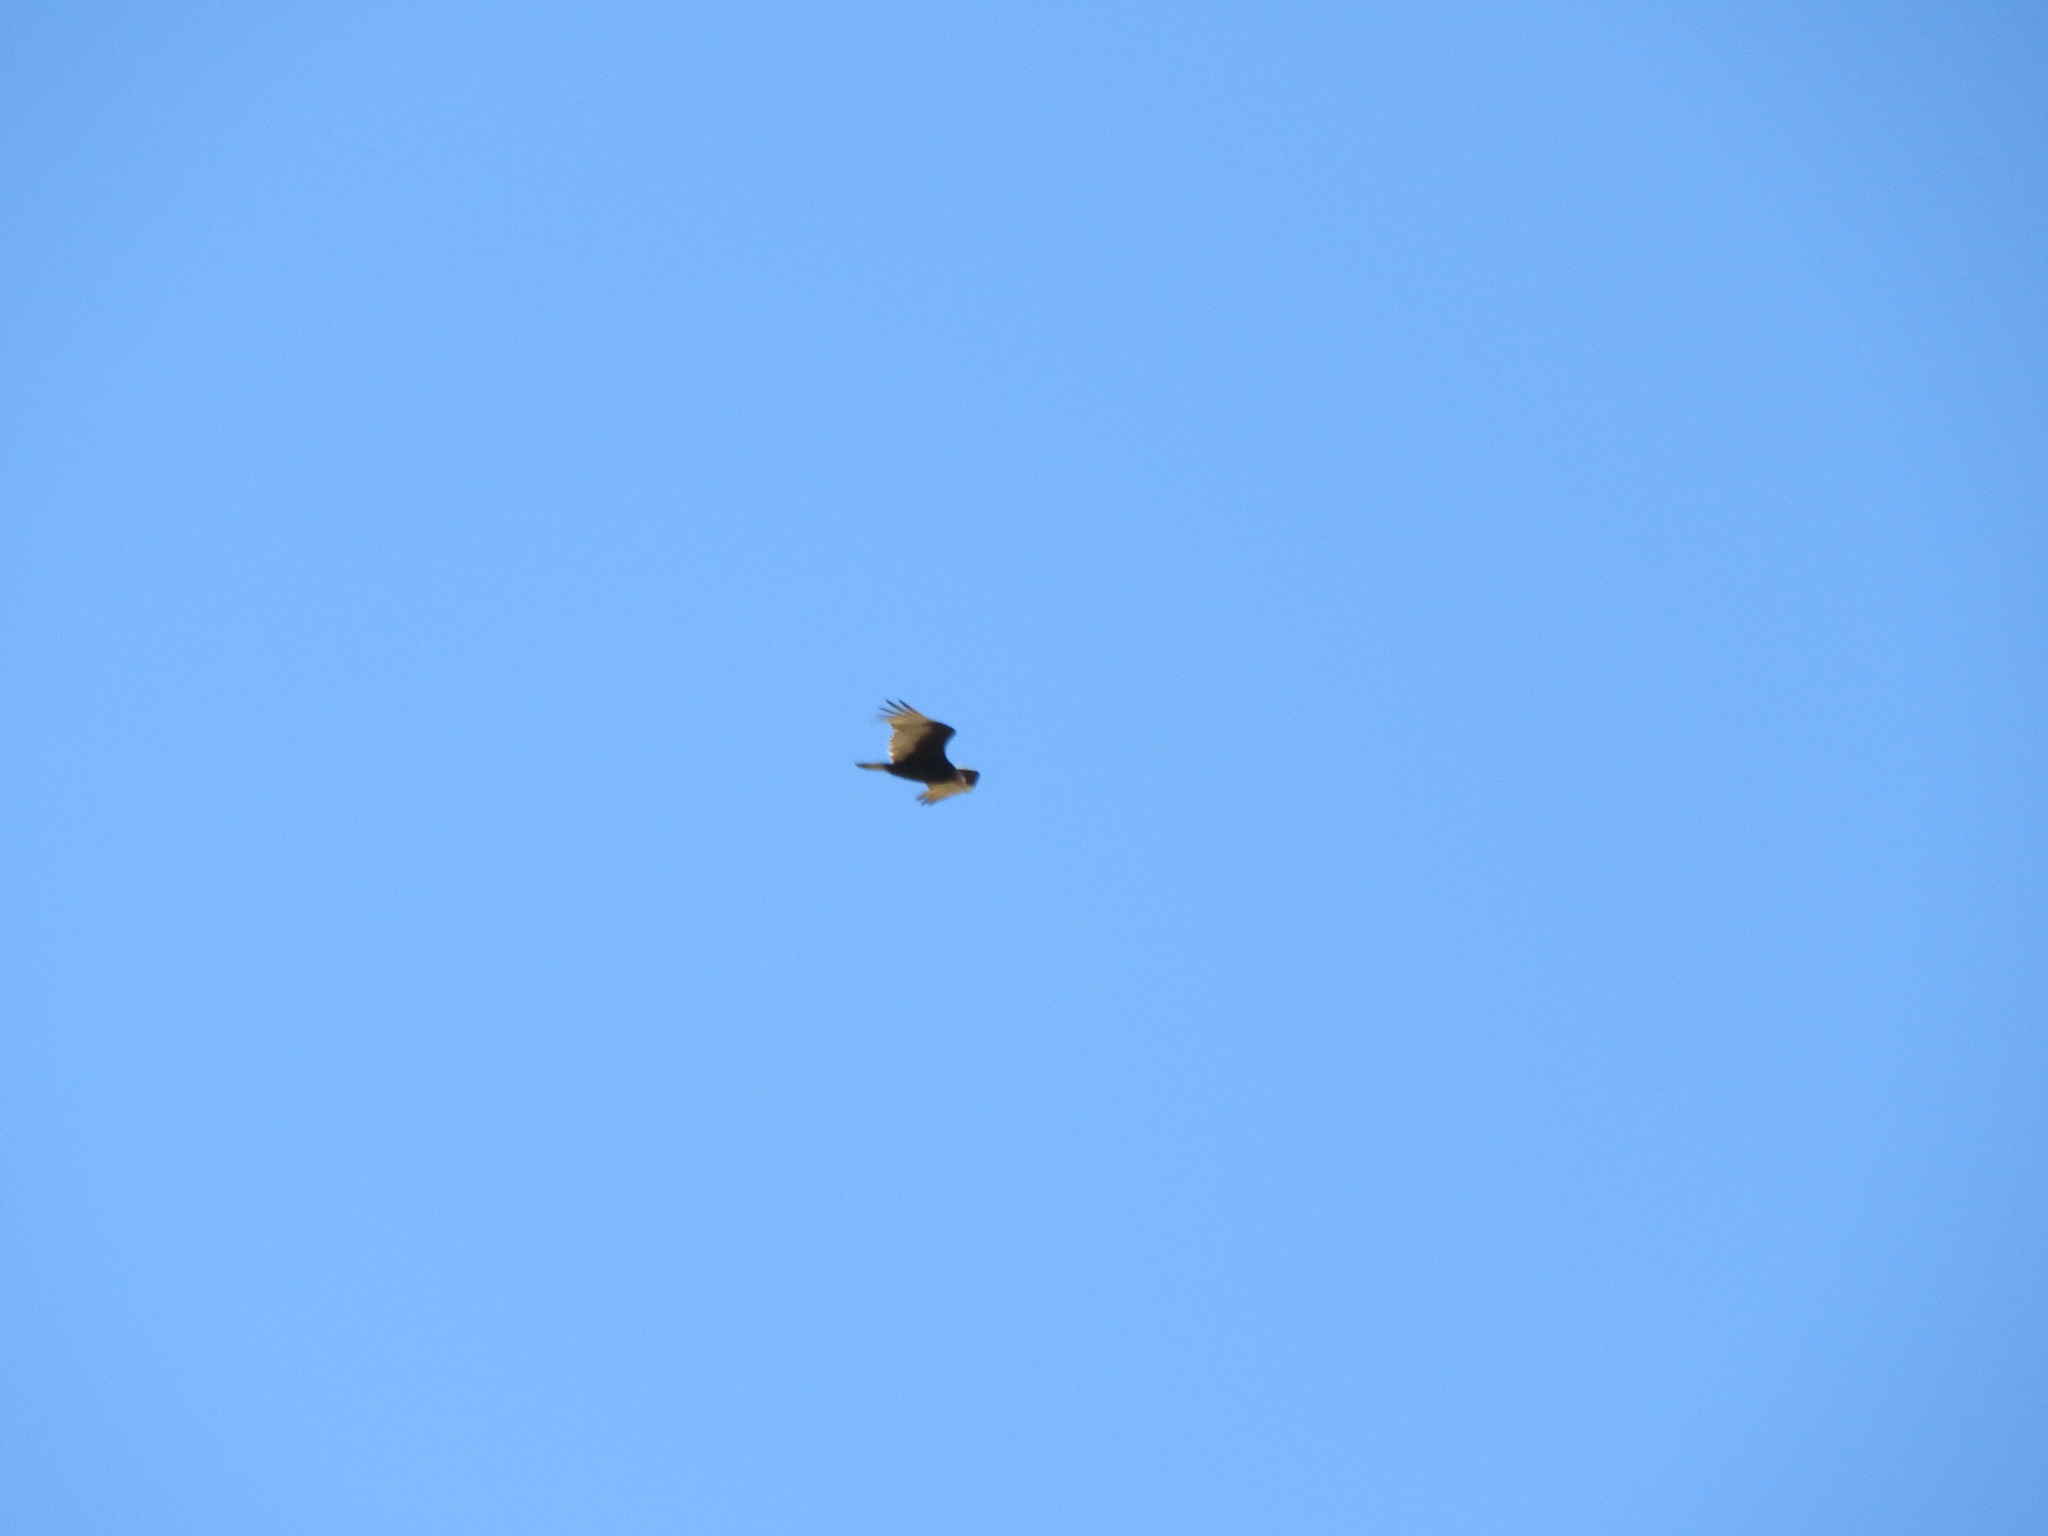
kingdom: Animalia
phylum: Chordata
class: Aves
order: Accipitriformes
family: Cathartidae
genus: Cathartes
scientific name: Cathartes aura
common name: Turkey vulture
